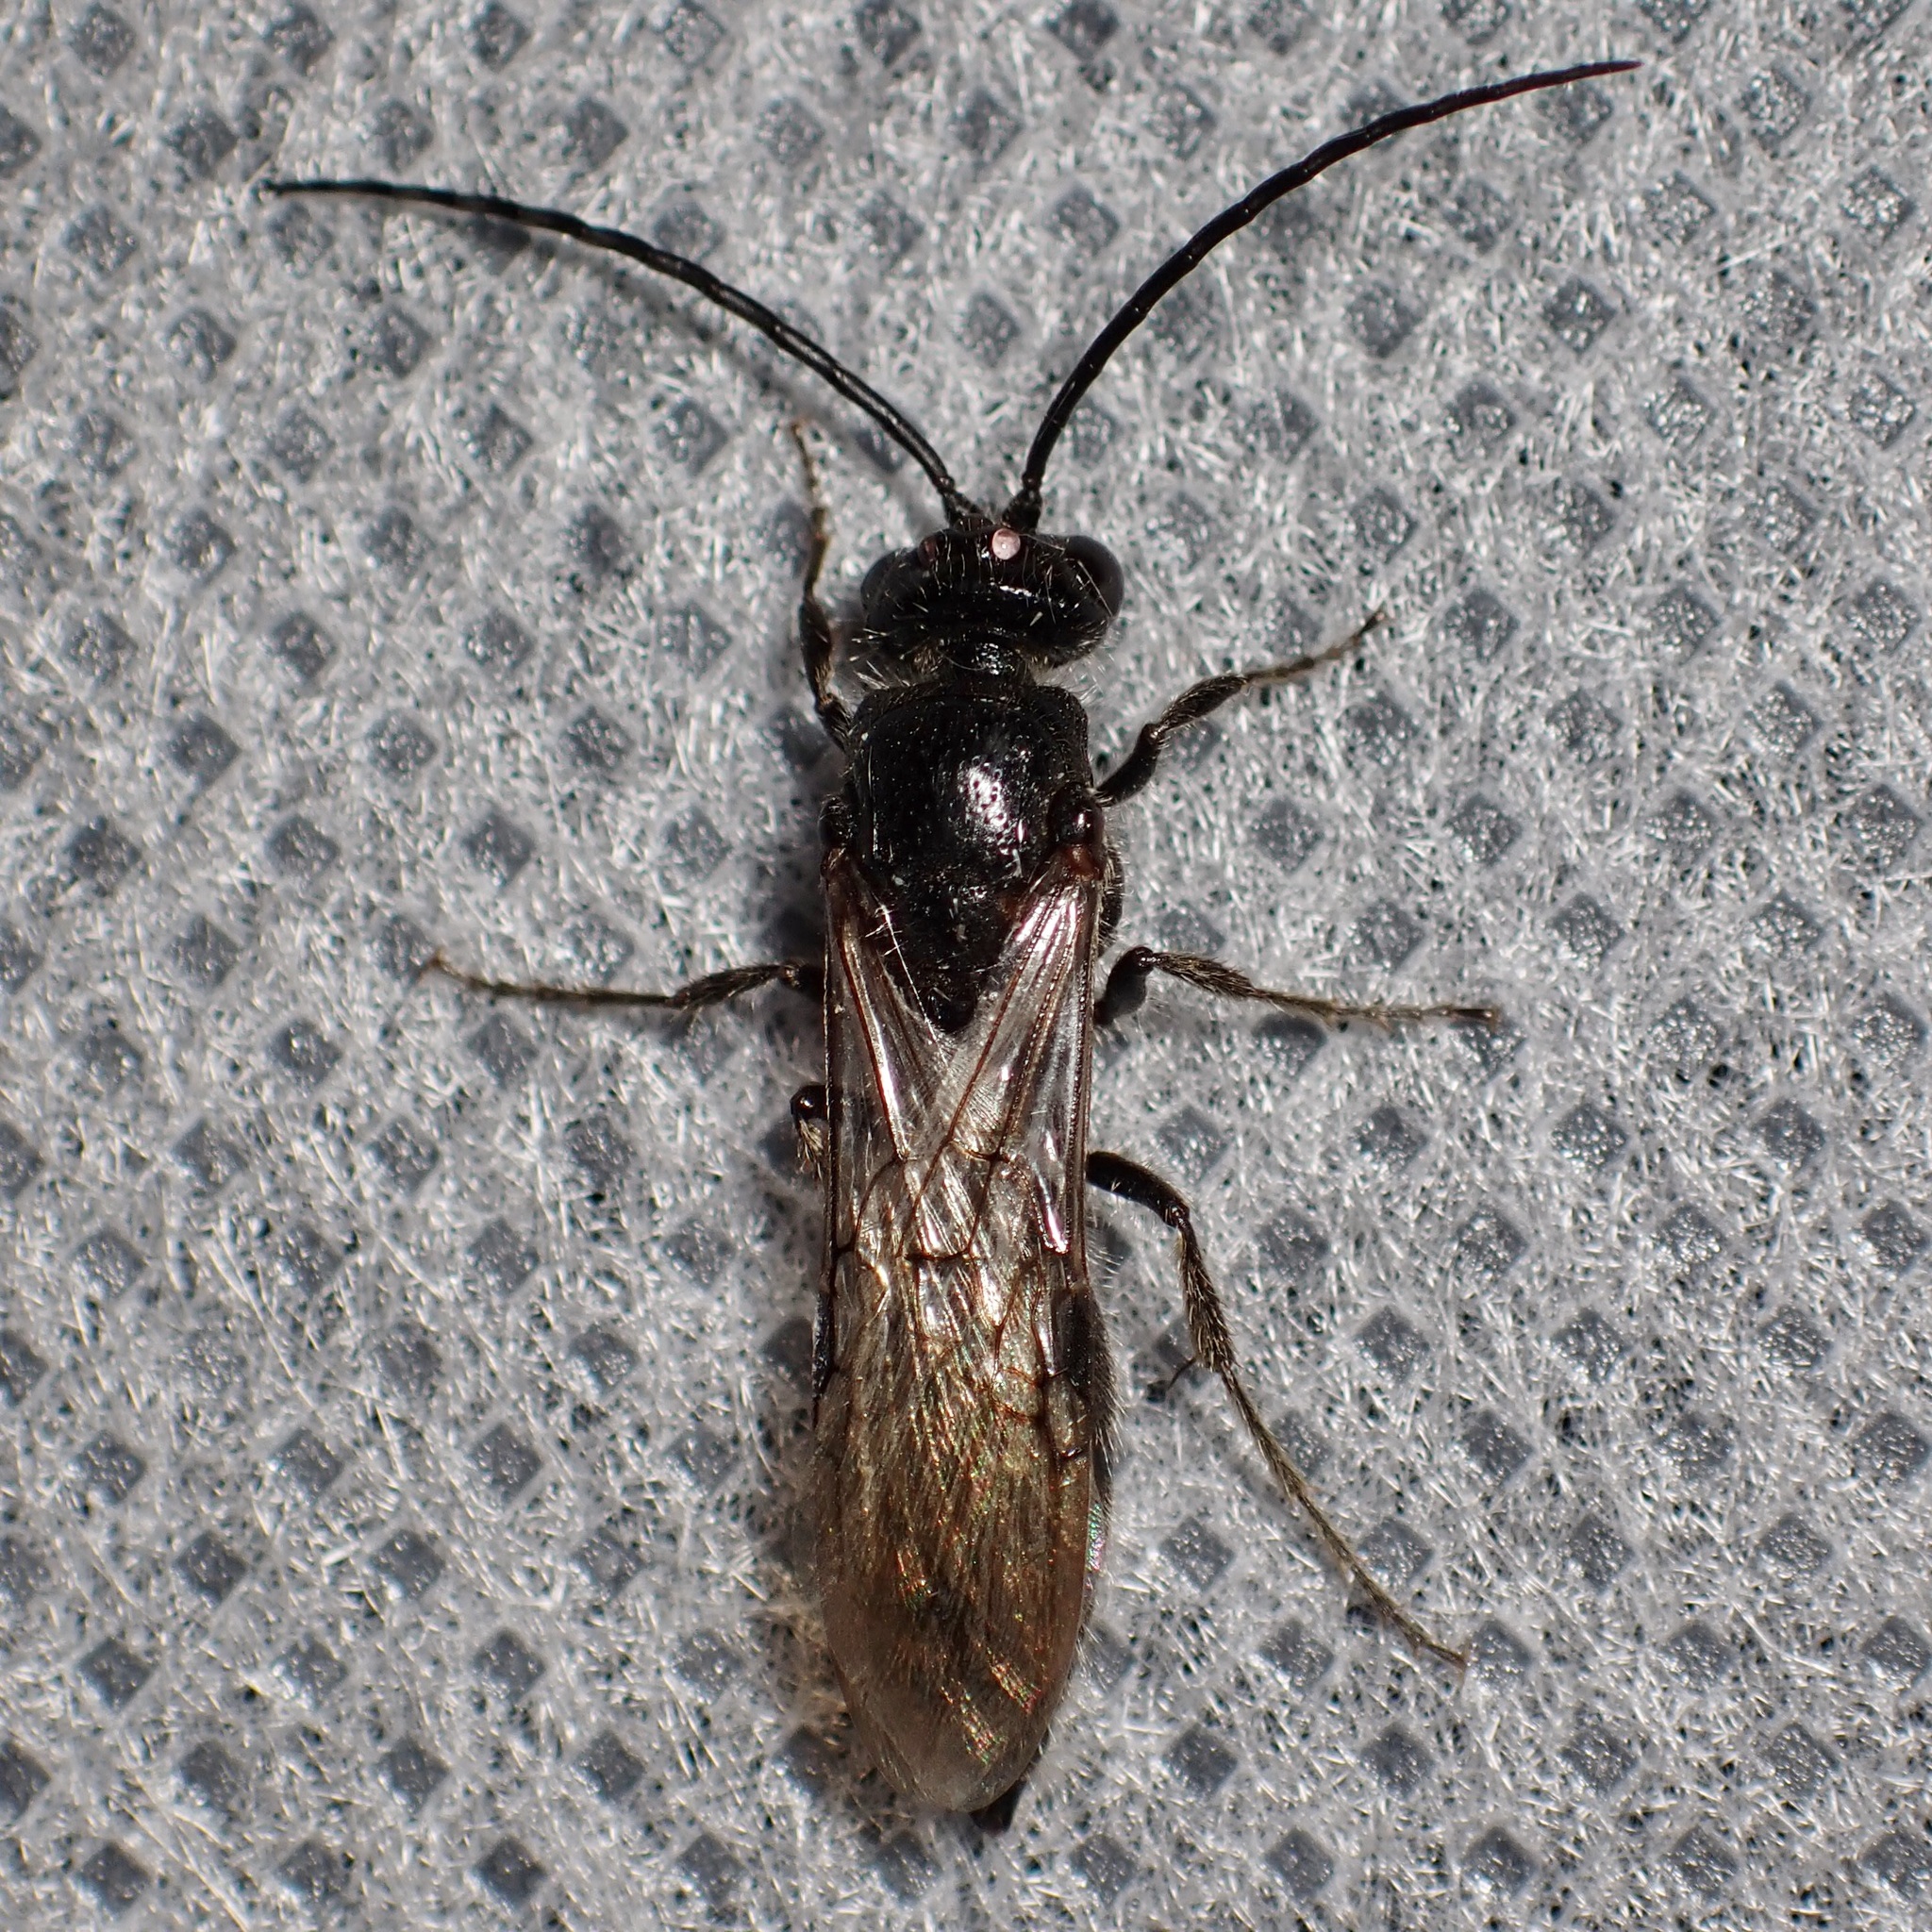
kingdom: Animalia
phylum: Arthropoda
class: Insecta
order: Hymenoptera
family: Tiphiidae
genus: Colocistis
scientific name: Colocistis castanea
